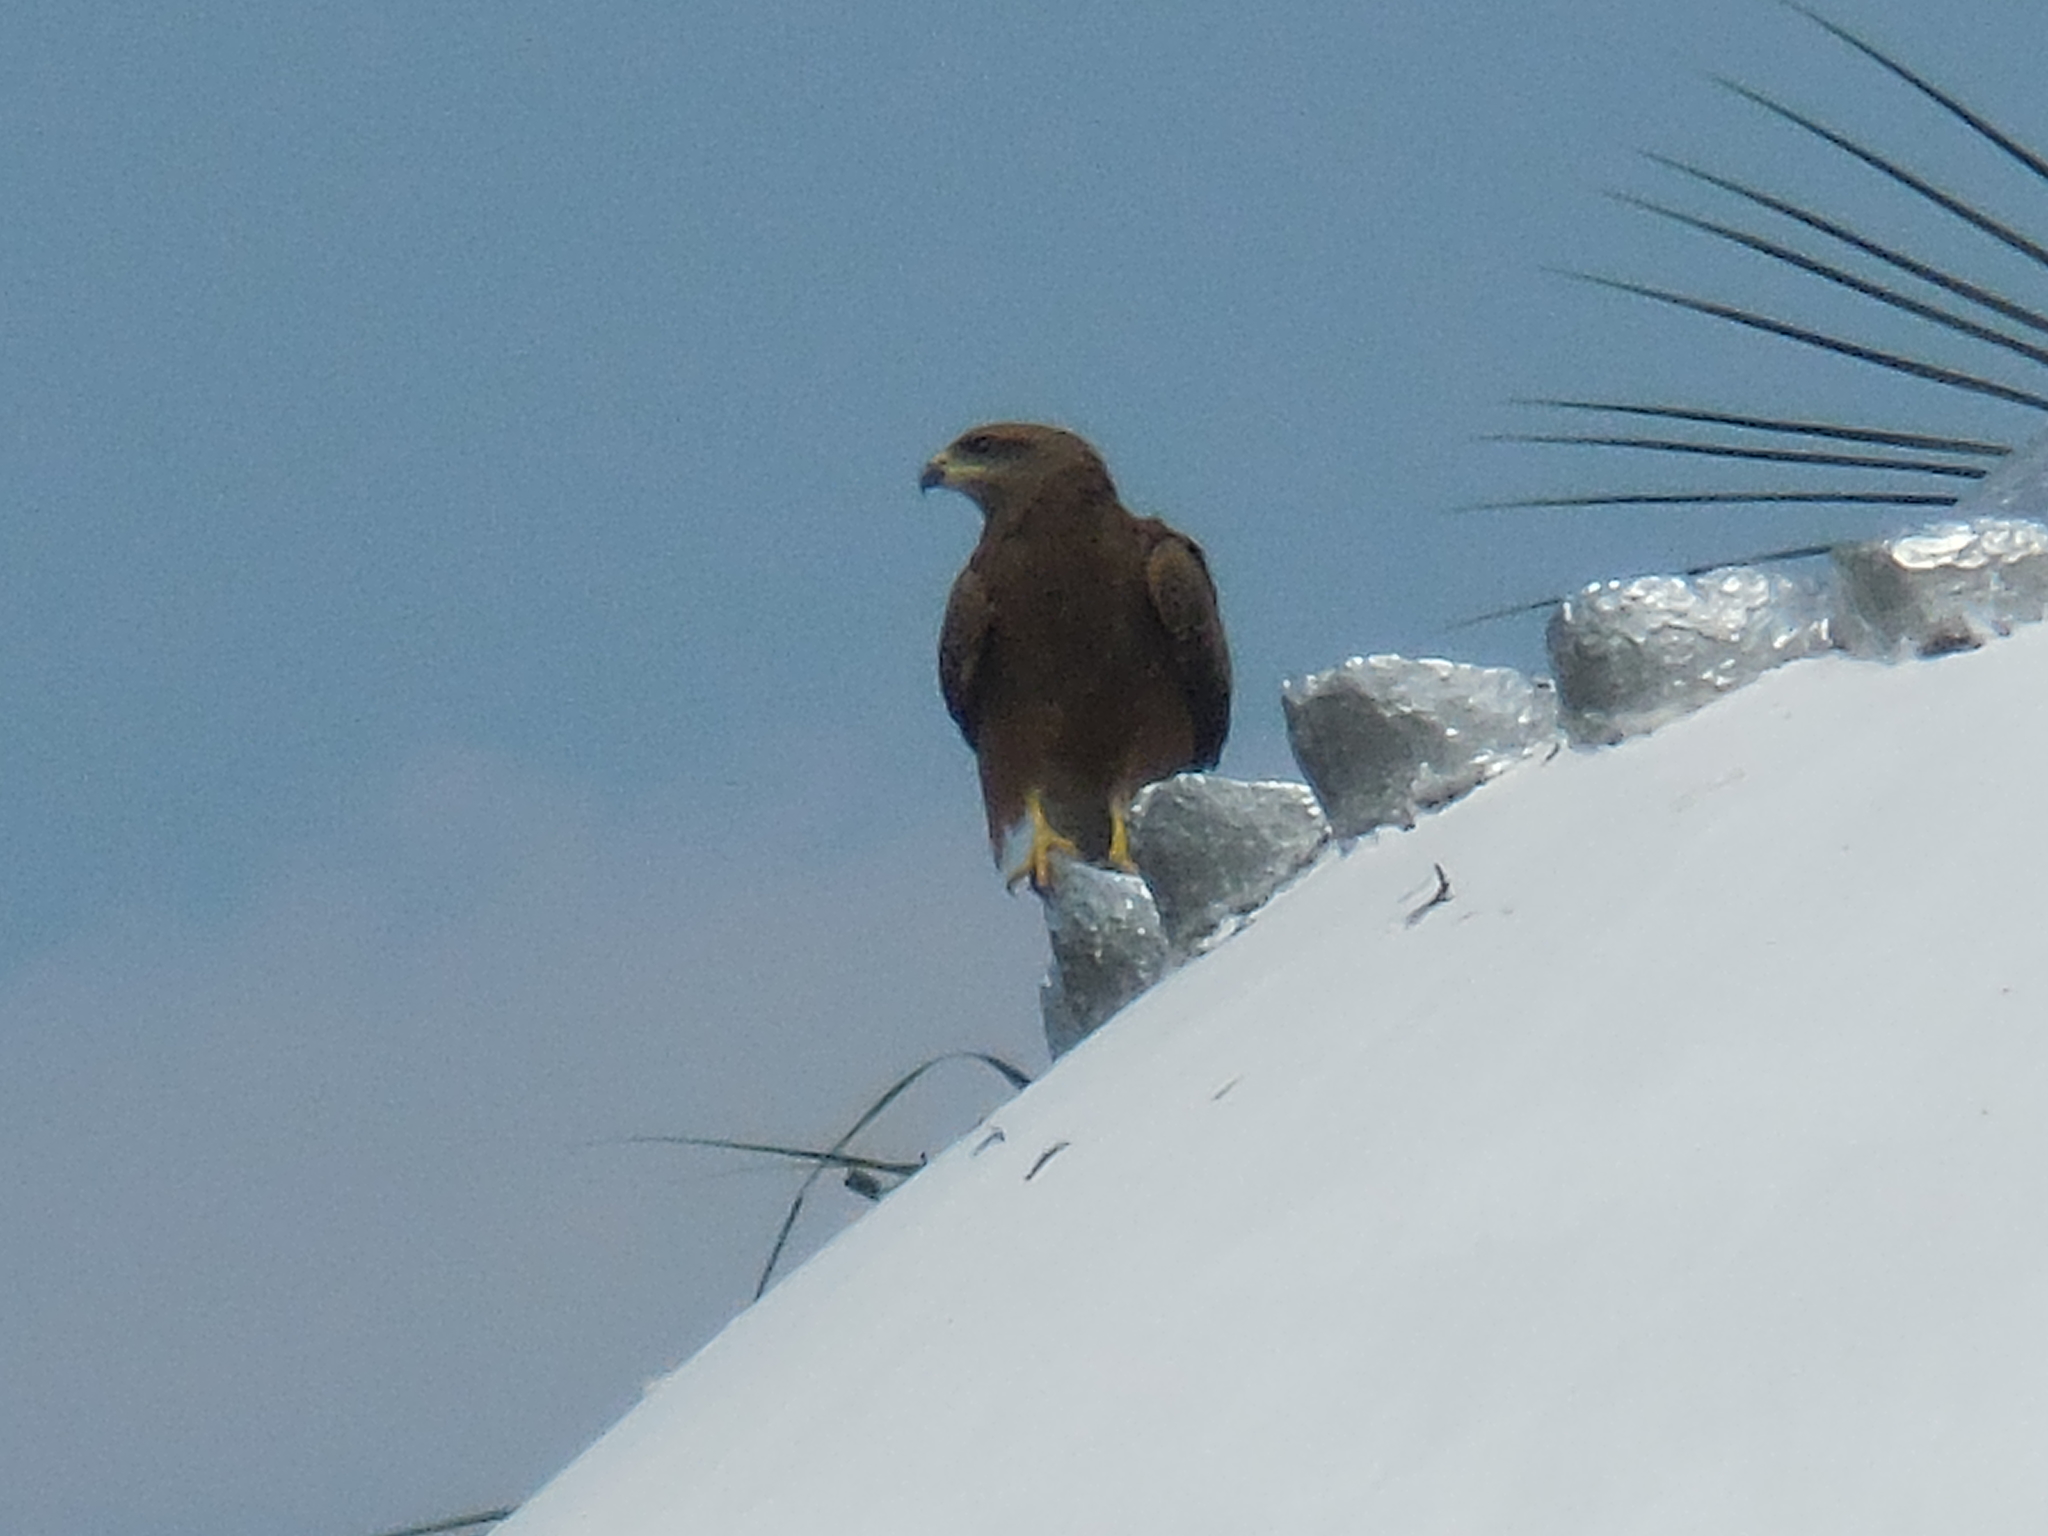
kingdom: Animalia
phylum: Chordata
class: Aves
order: Accipitriformes
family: Accipitridae
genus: Milvus
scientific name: Milvus migrans
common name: Black kite
